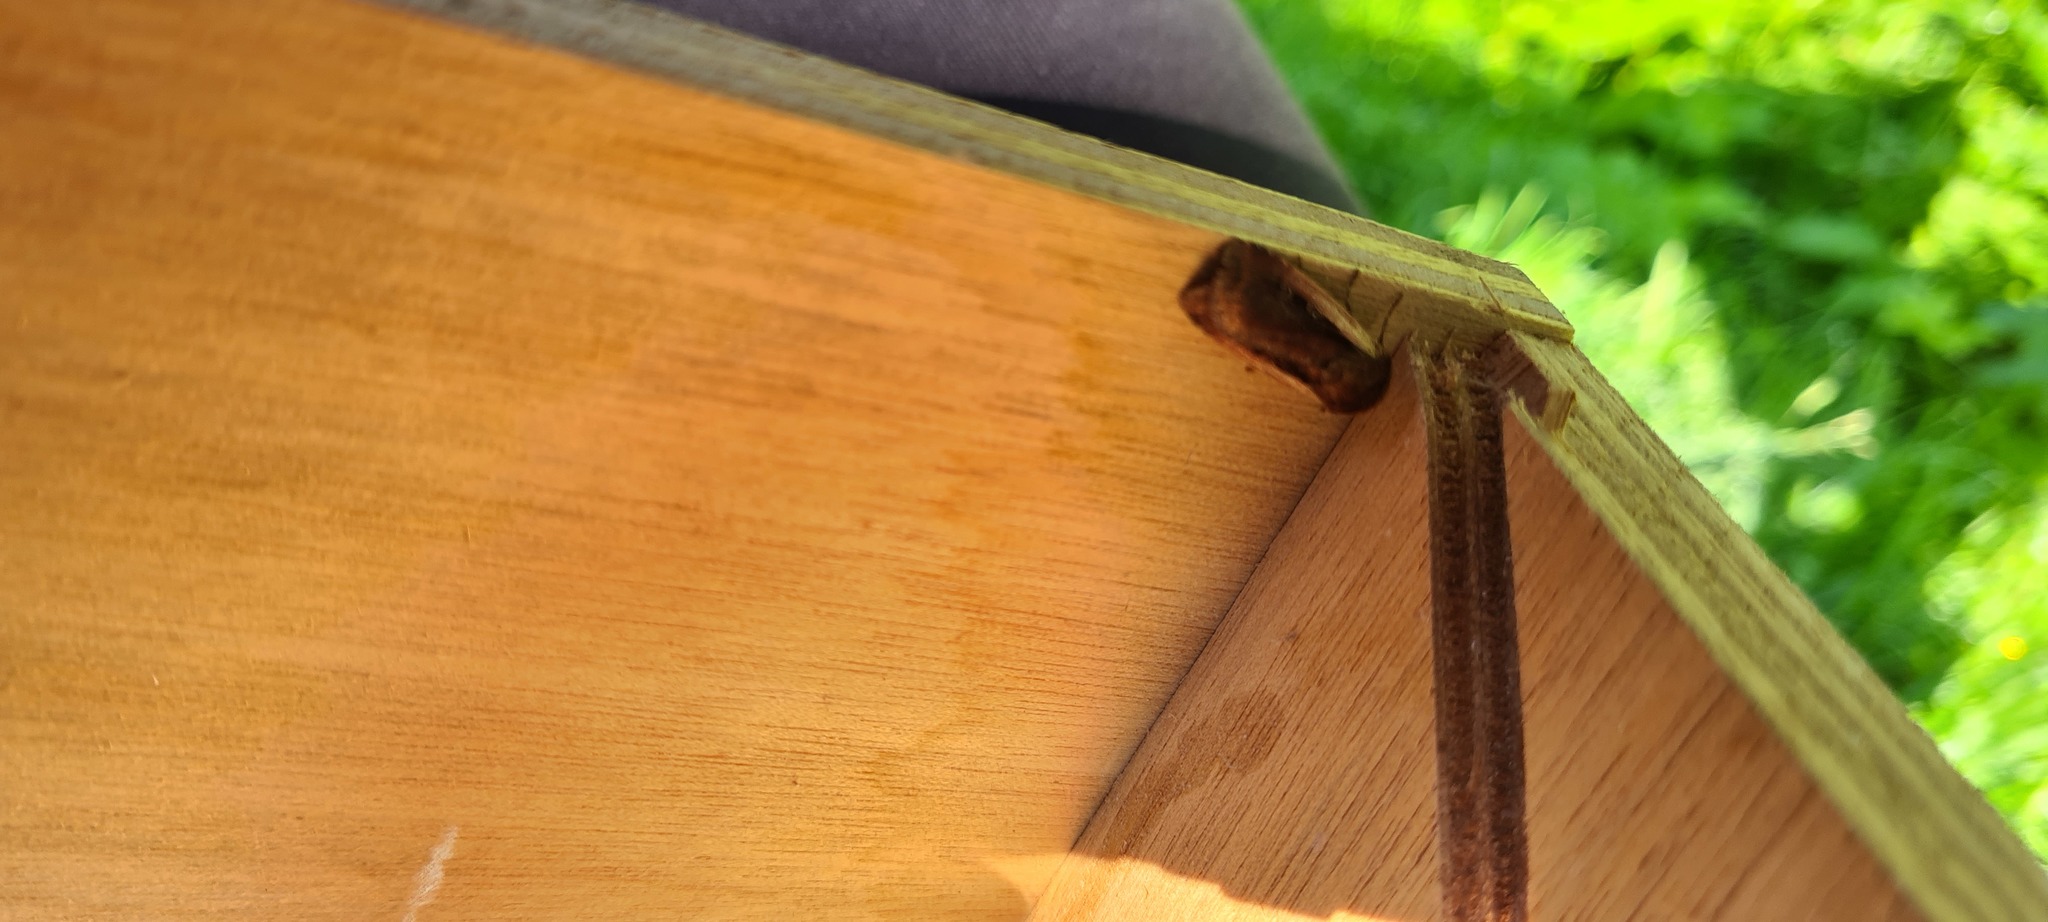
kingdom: Animalia
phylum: Arthropoda
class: Insecta
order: Lepidoptera
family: Noctuidae
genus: Ochropleura
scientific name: Ochropleura plecta
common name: Flame shoulder
